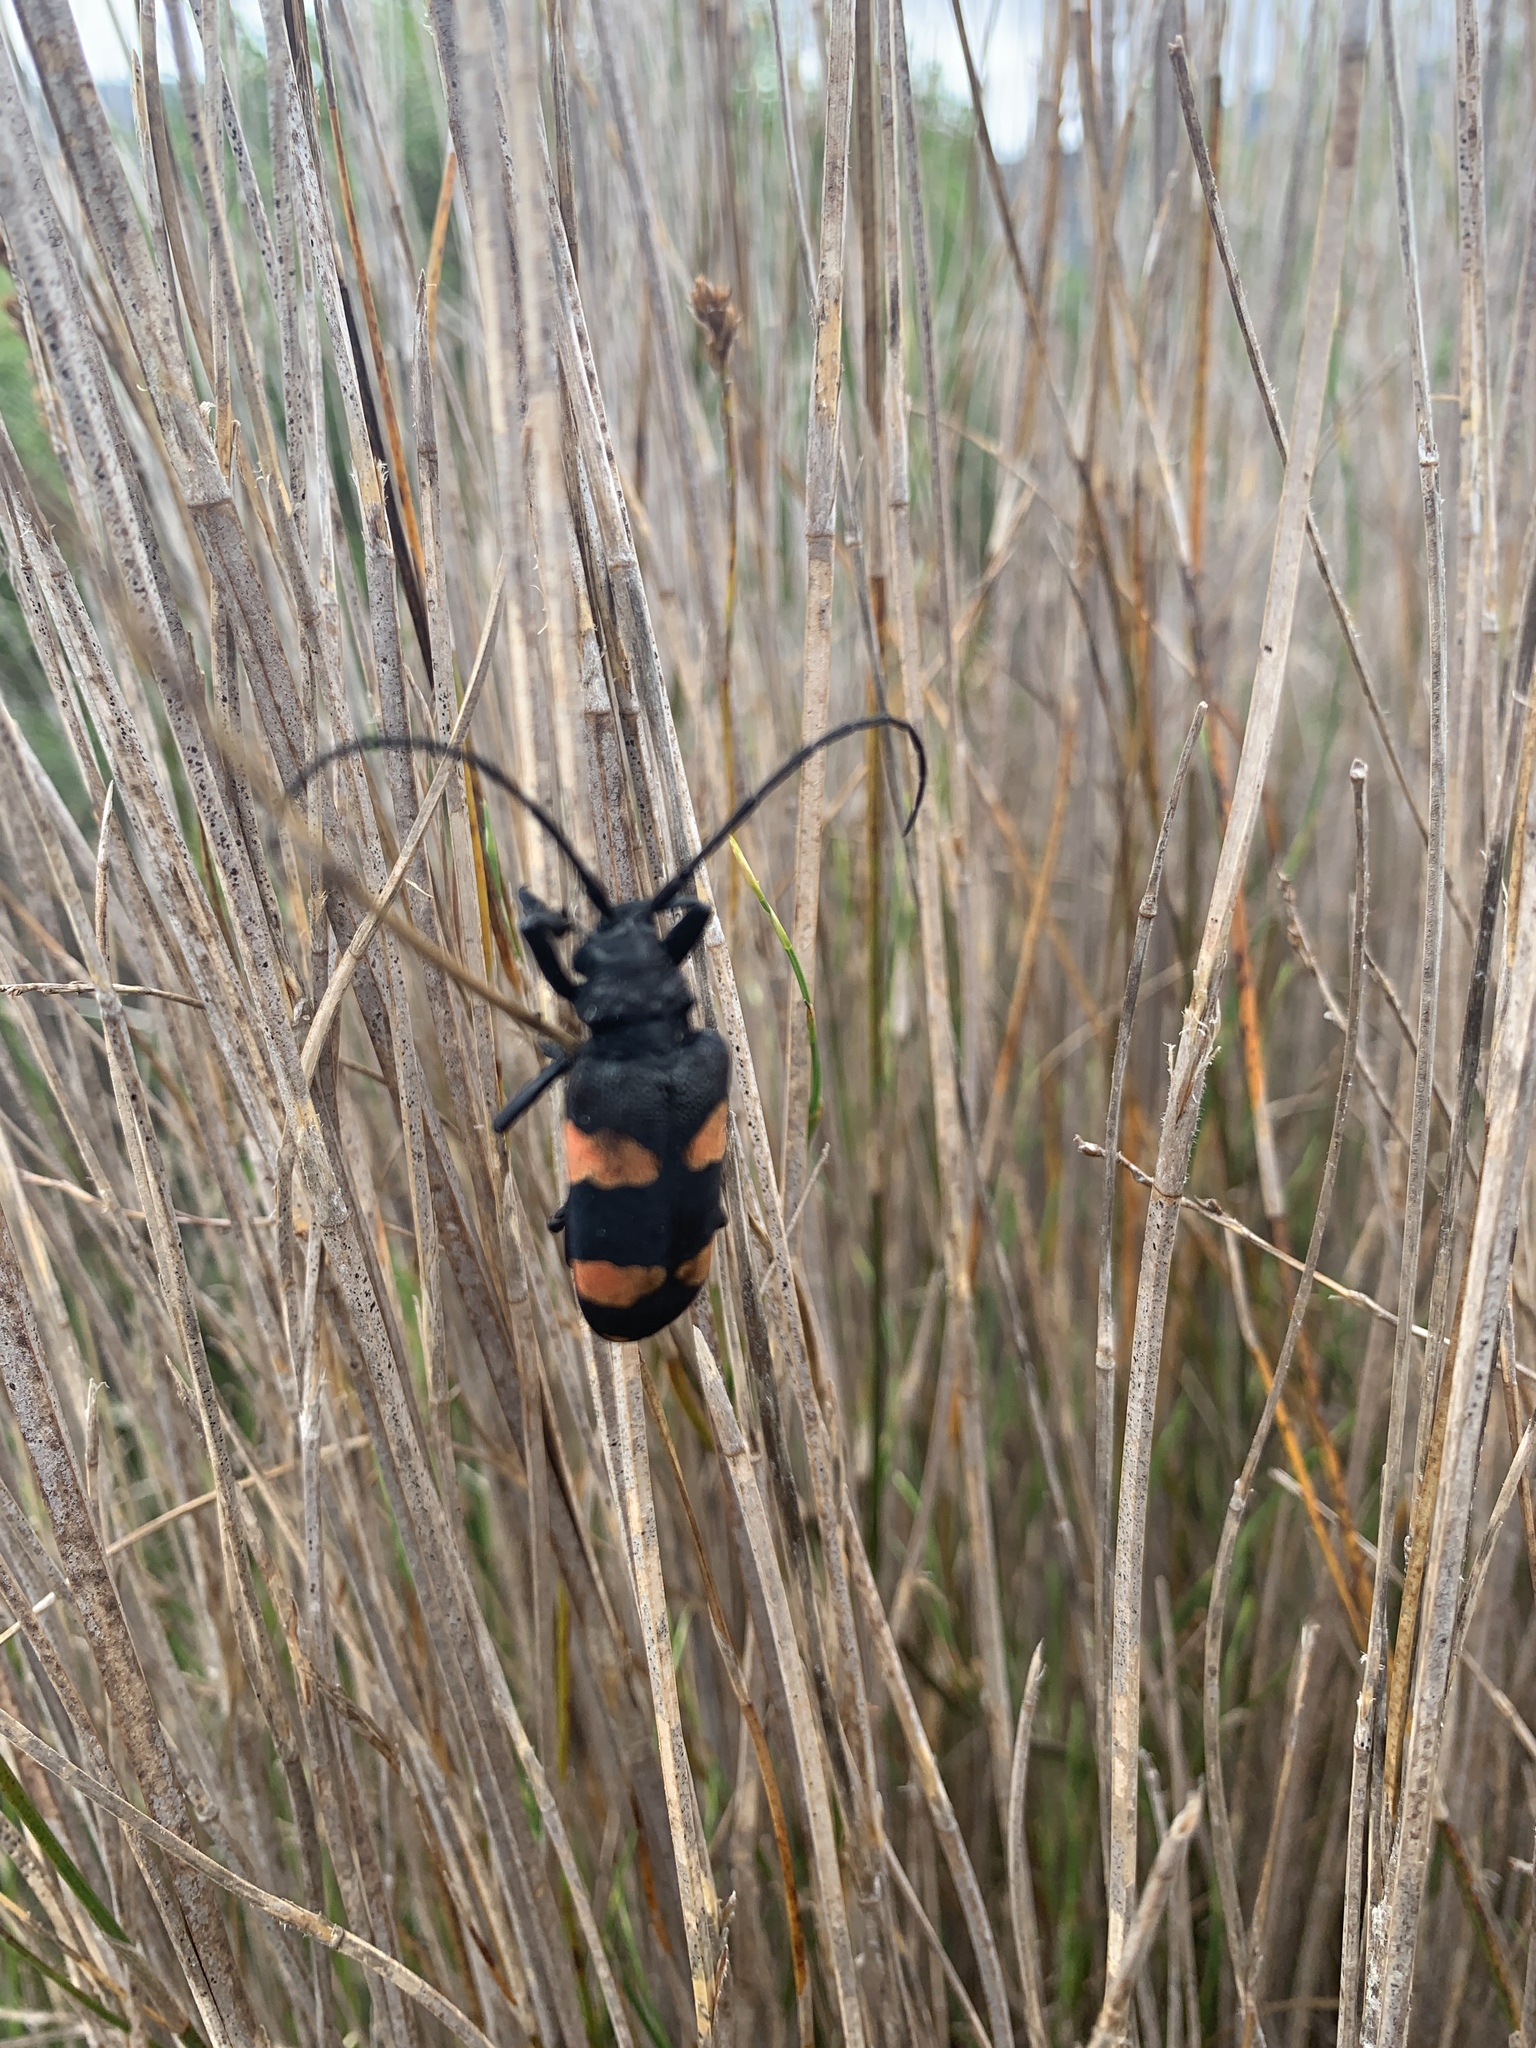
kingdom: Animalia
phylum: Arthropoda
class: Insecta
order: Coleoptera
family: Cerambycidae
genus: Ceroplesis
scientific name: Ceroplesis aethiops
